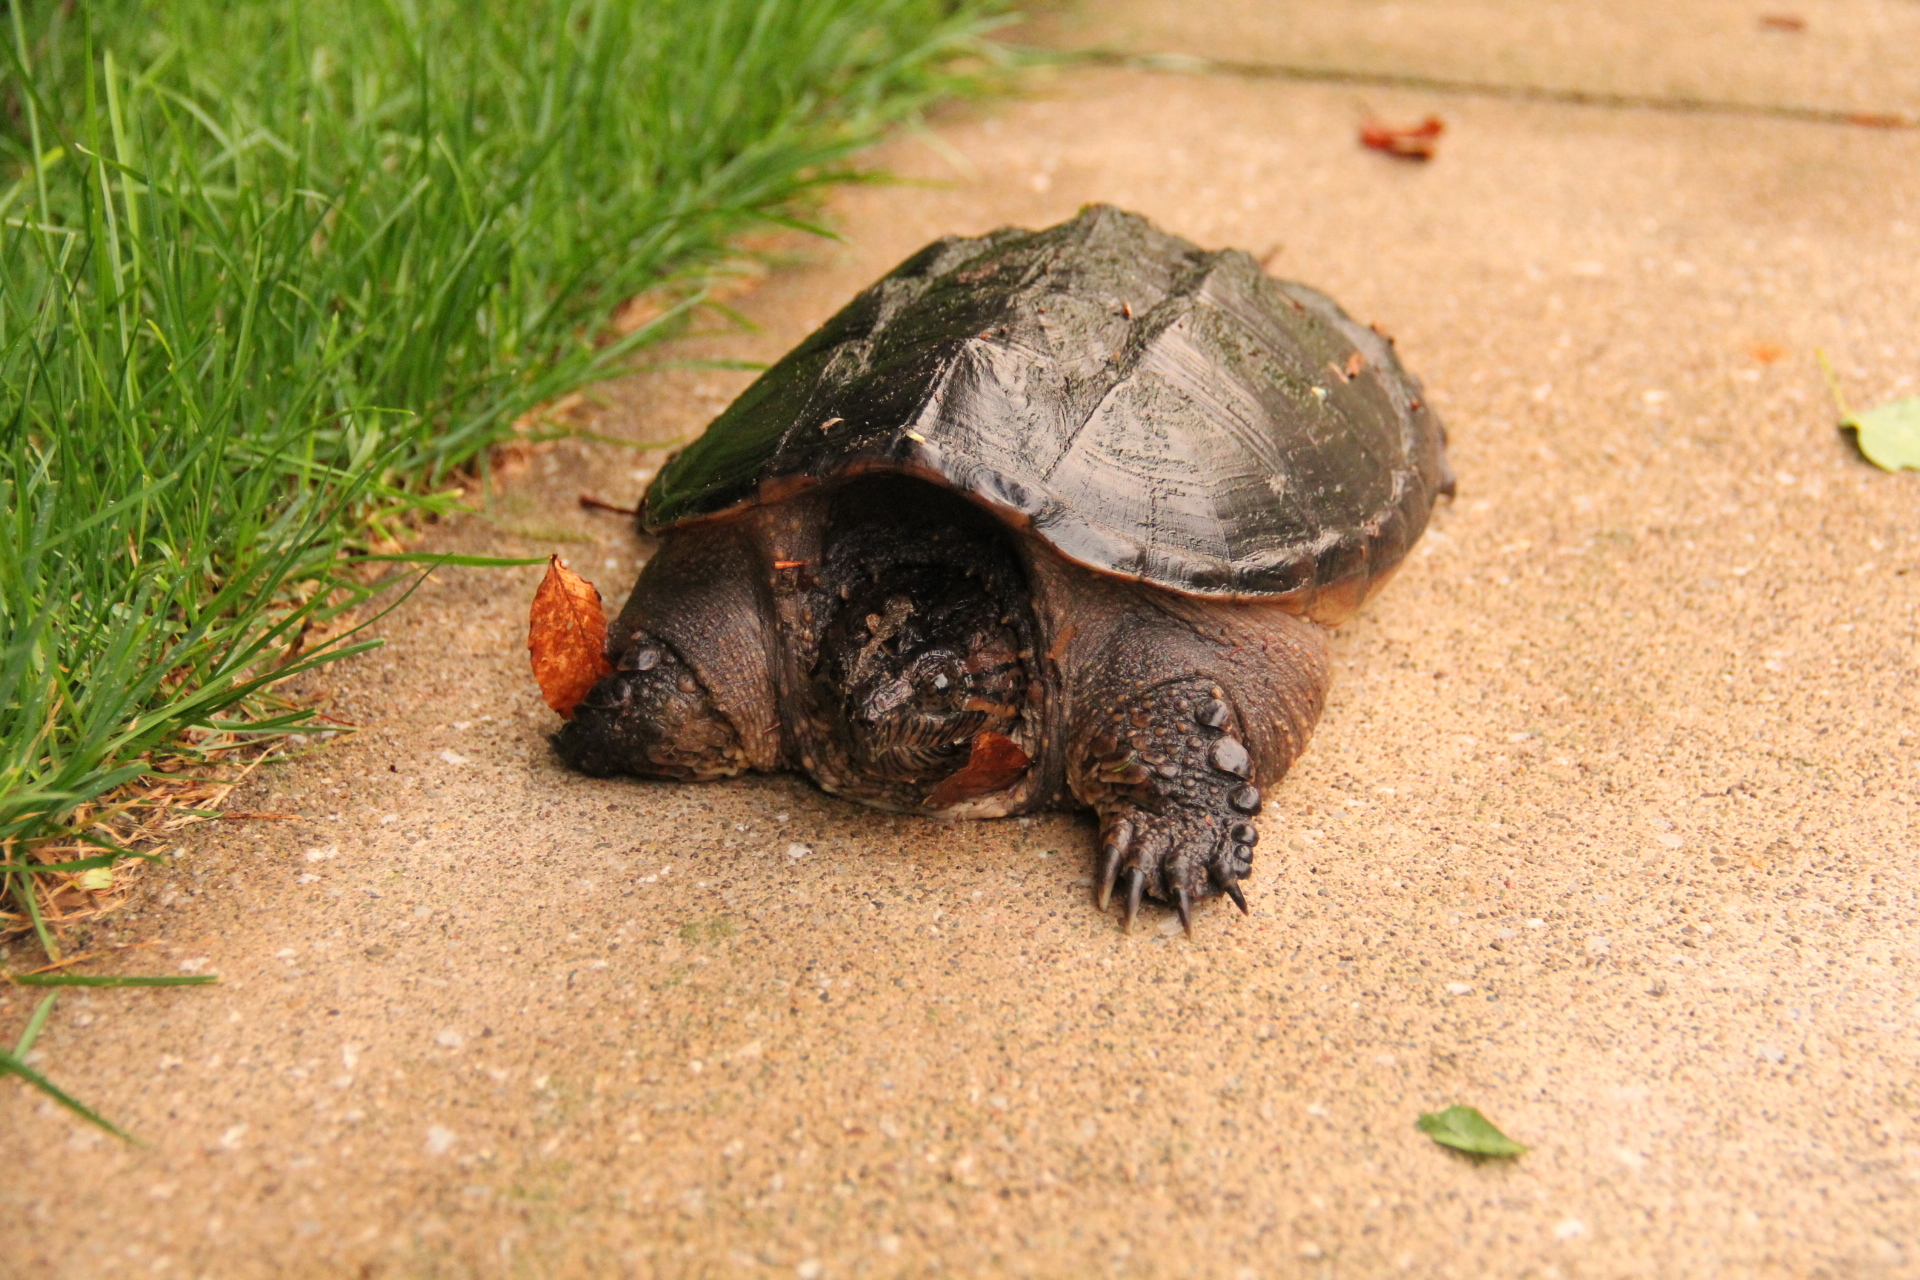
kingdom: Animalia
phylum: Chordata
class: Testudines
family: Chelydridae
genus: Chelydra
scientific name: Chelydra serpentina
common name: Common snapping turtle
